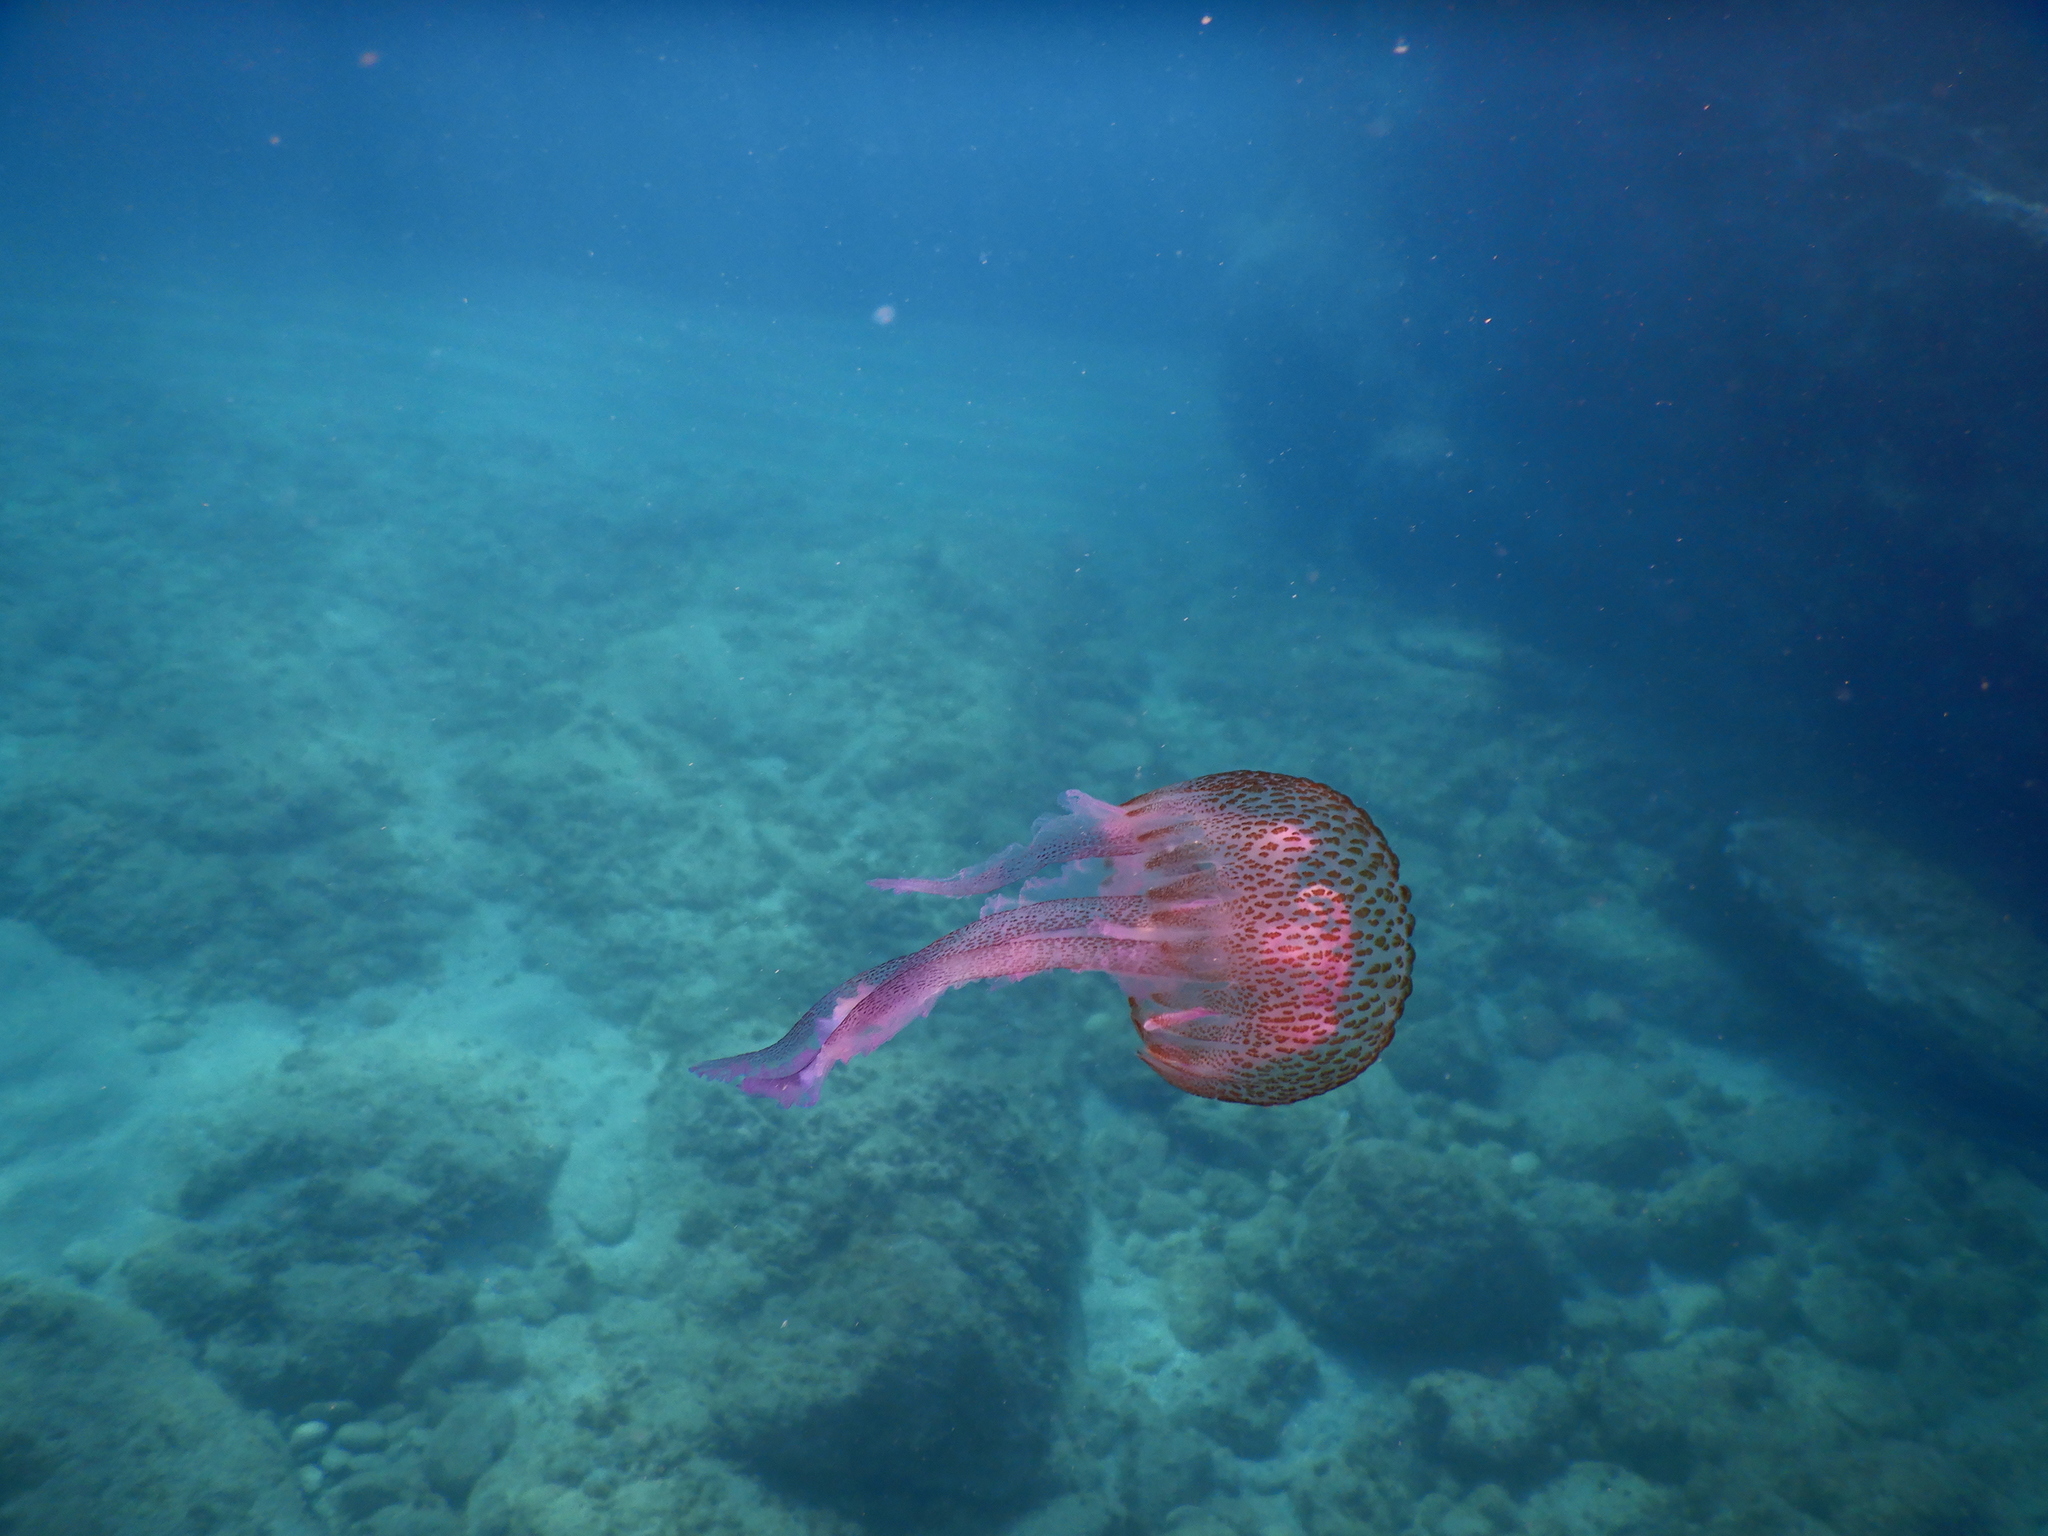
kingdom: Animalia
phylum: Cnidaria
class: Scyphozoa
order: Semaeostomeae
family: Pelagiidae
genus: Pelagia
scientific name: Pelagia noctiluca
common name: Mauve stinger
